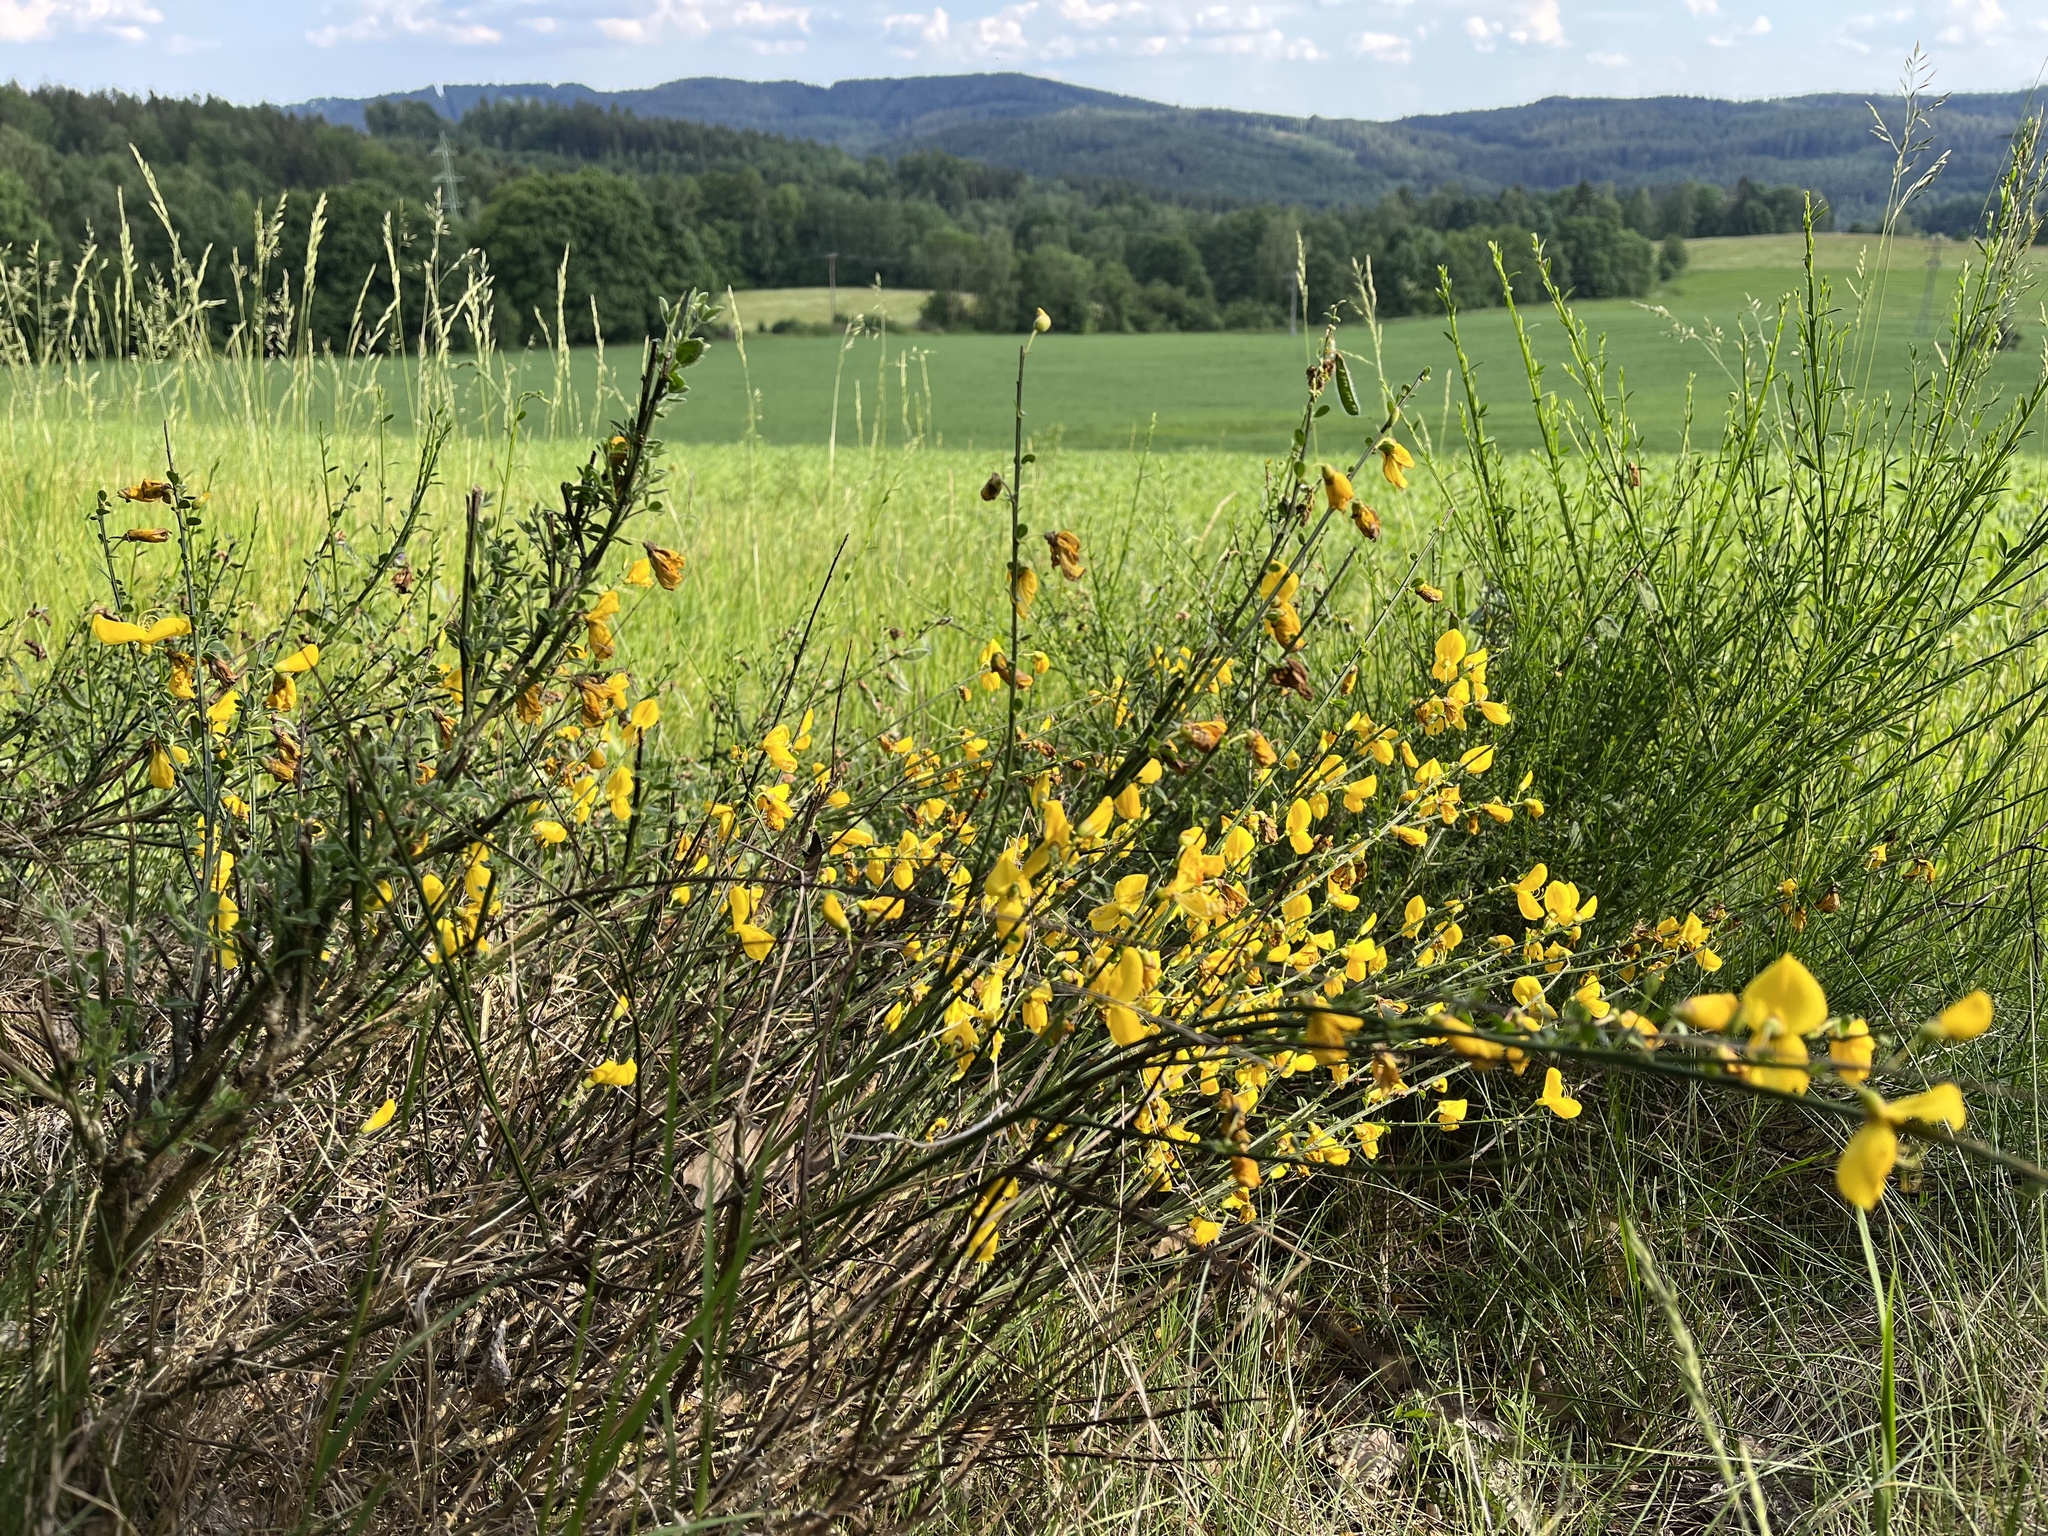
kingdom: Plantae
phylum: Tracheophyta
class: Magnoliopsida
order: Fabales
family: Fabaceae
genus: Cytisus
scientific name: Cytisus scoparius
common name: Scotch broom
